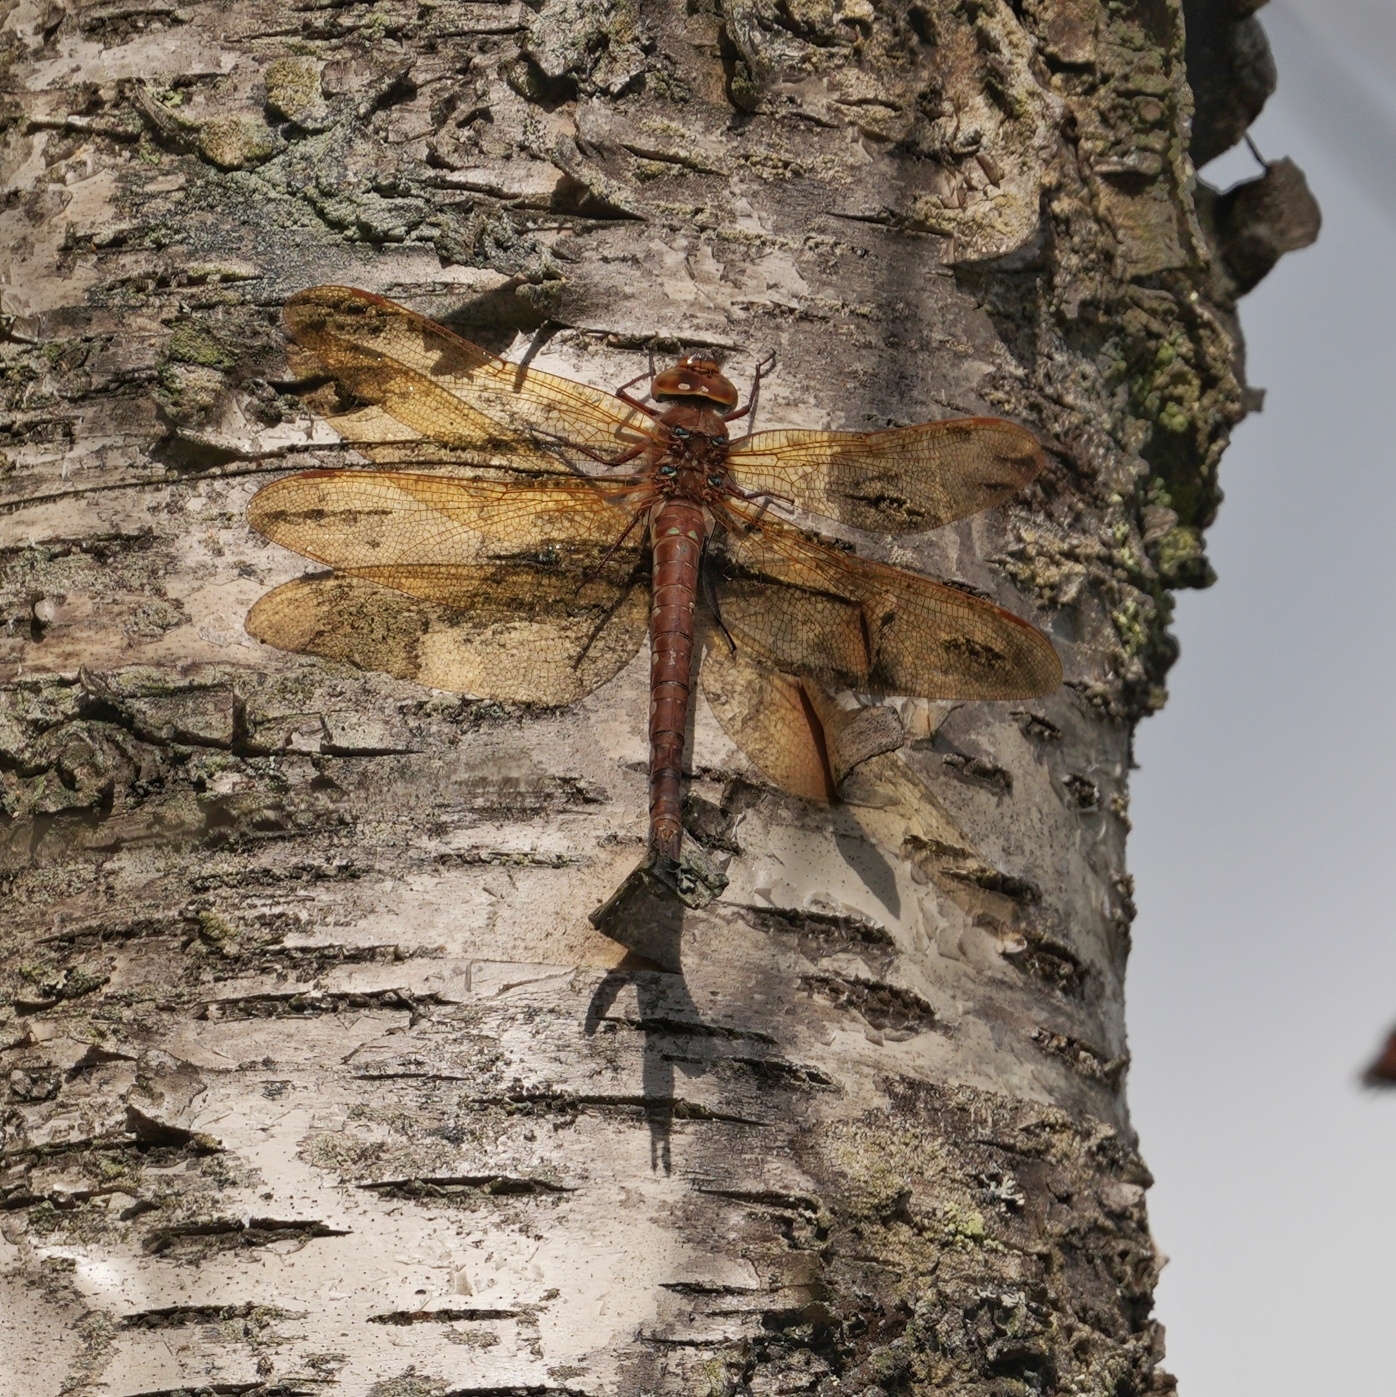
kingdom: Animalia
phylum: Arthropoda
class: Insecta
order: Odonata
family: Aeshnidae
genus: Aeshna
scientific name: Aeshna grandis
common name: Brown hawker
